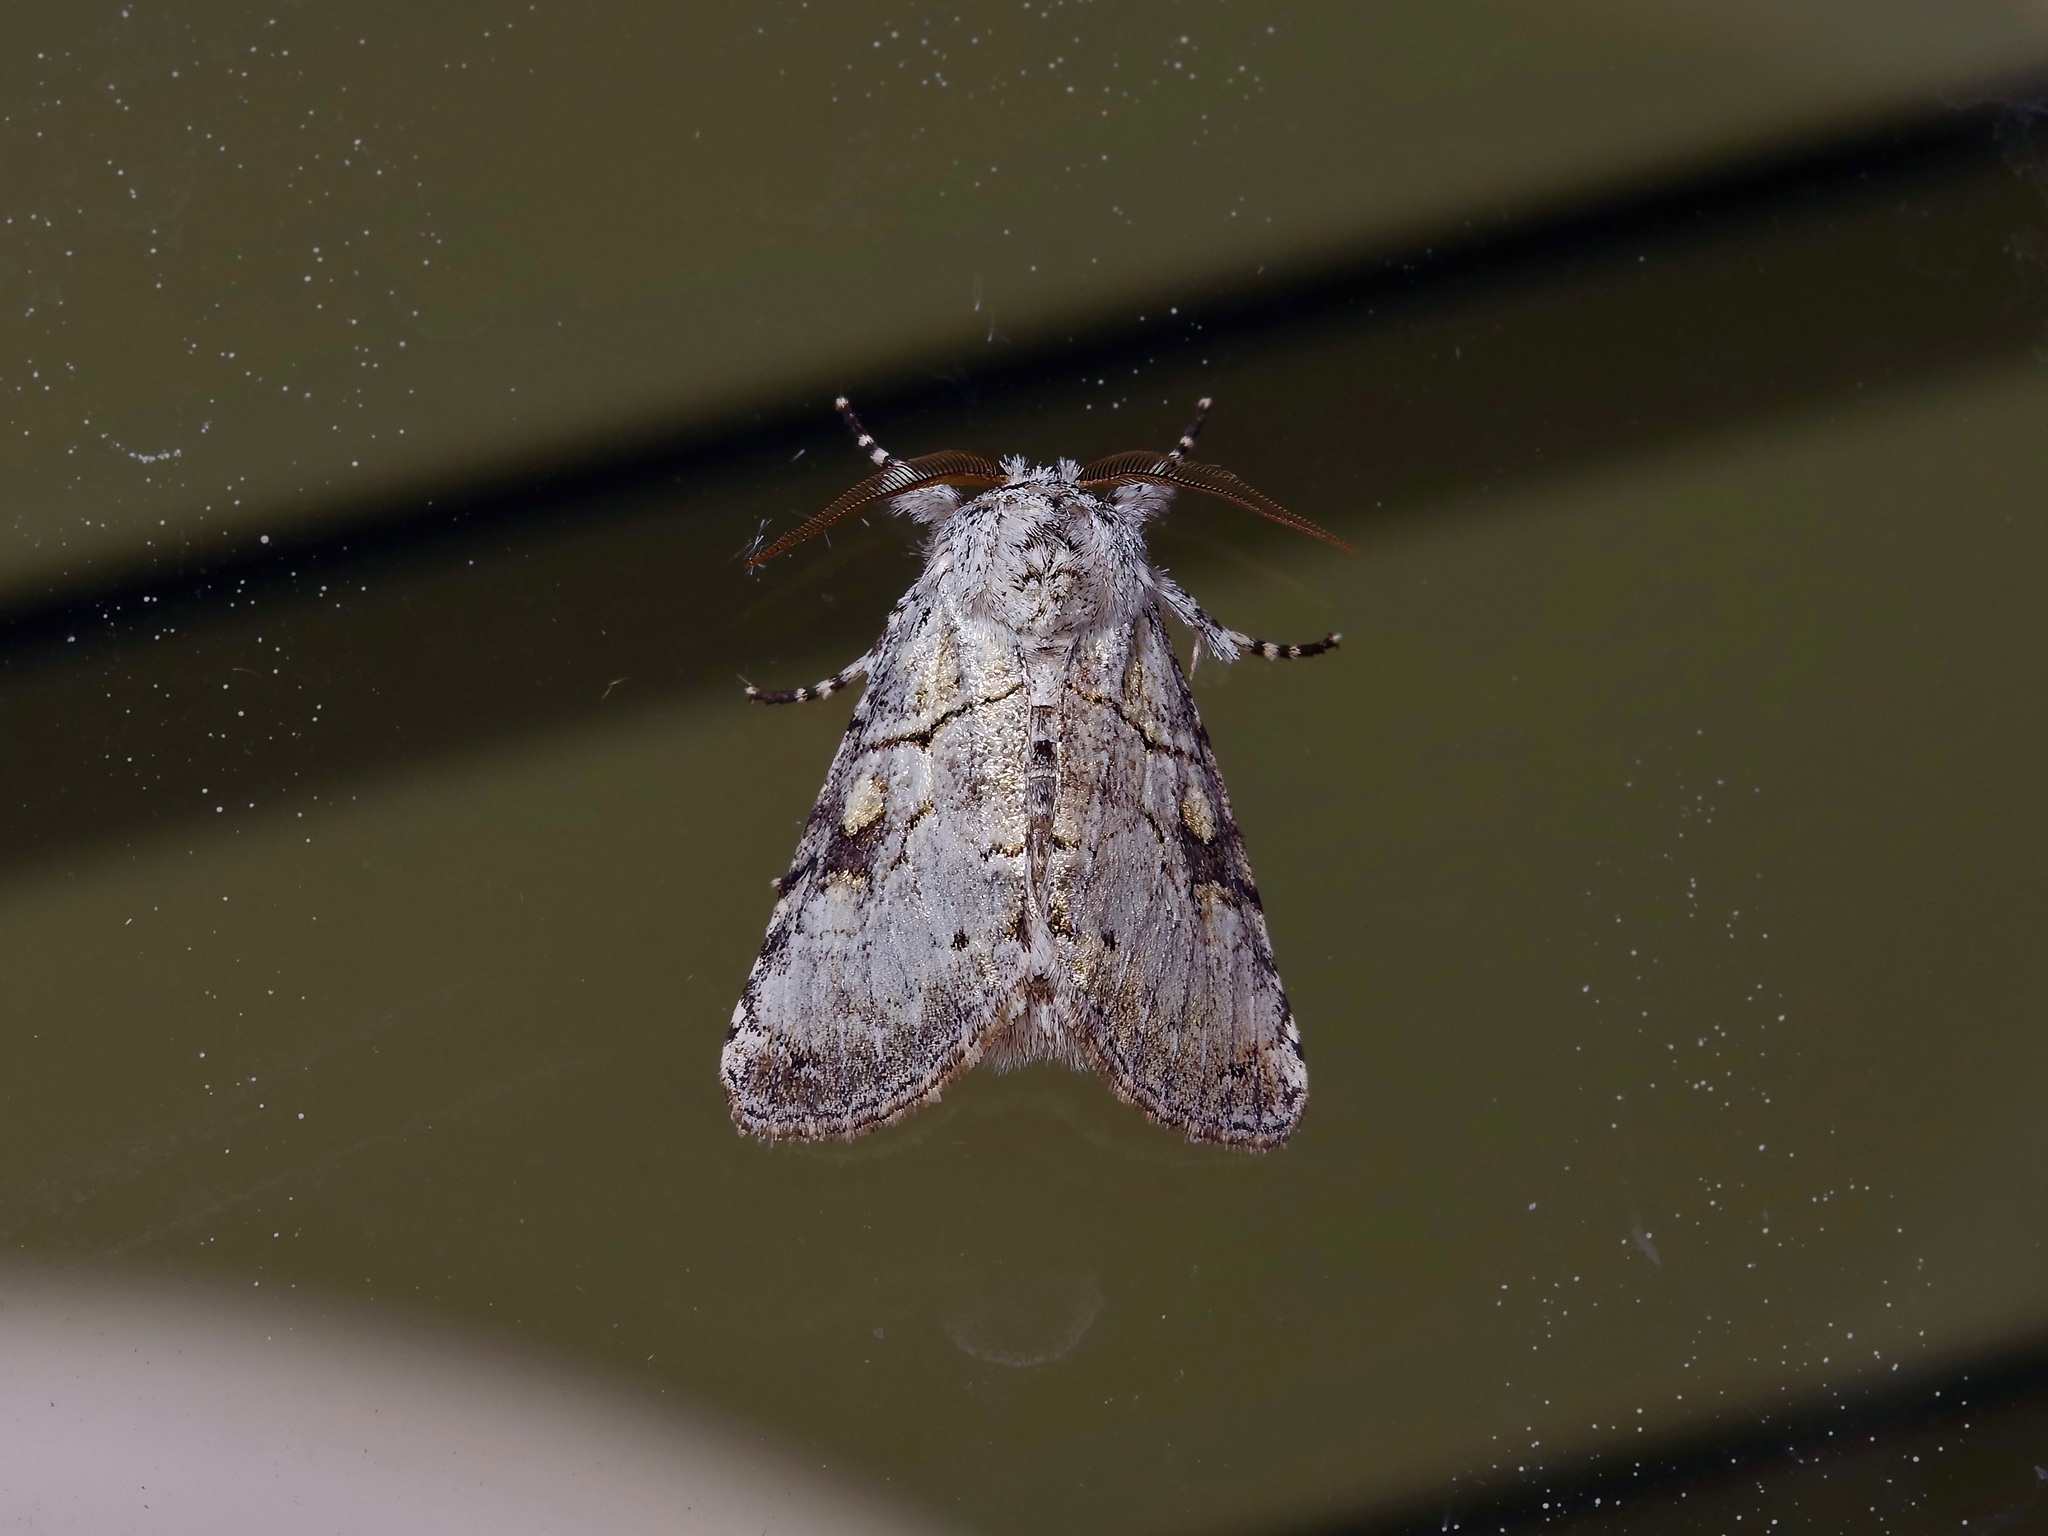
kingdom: Animalia
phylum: Arthropoda
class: Insecta
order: Lepidoptera
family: Noctuidae
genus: Charadra
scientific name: Charadra dispulsa
